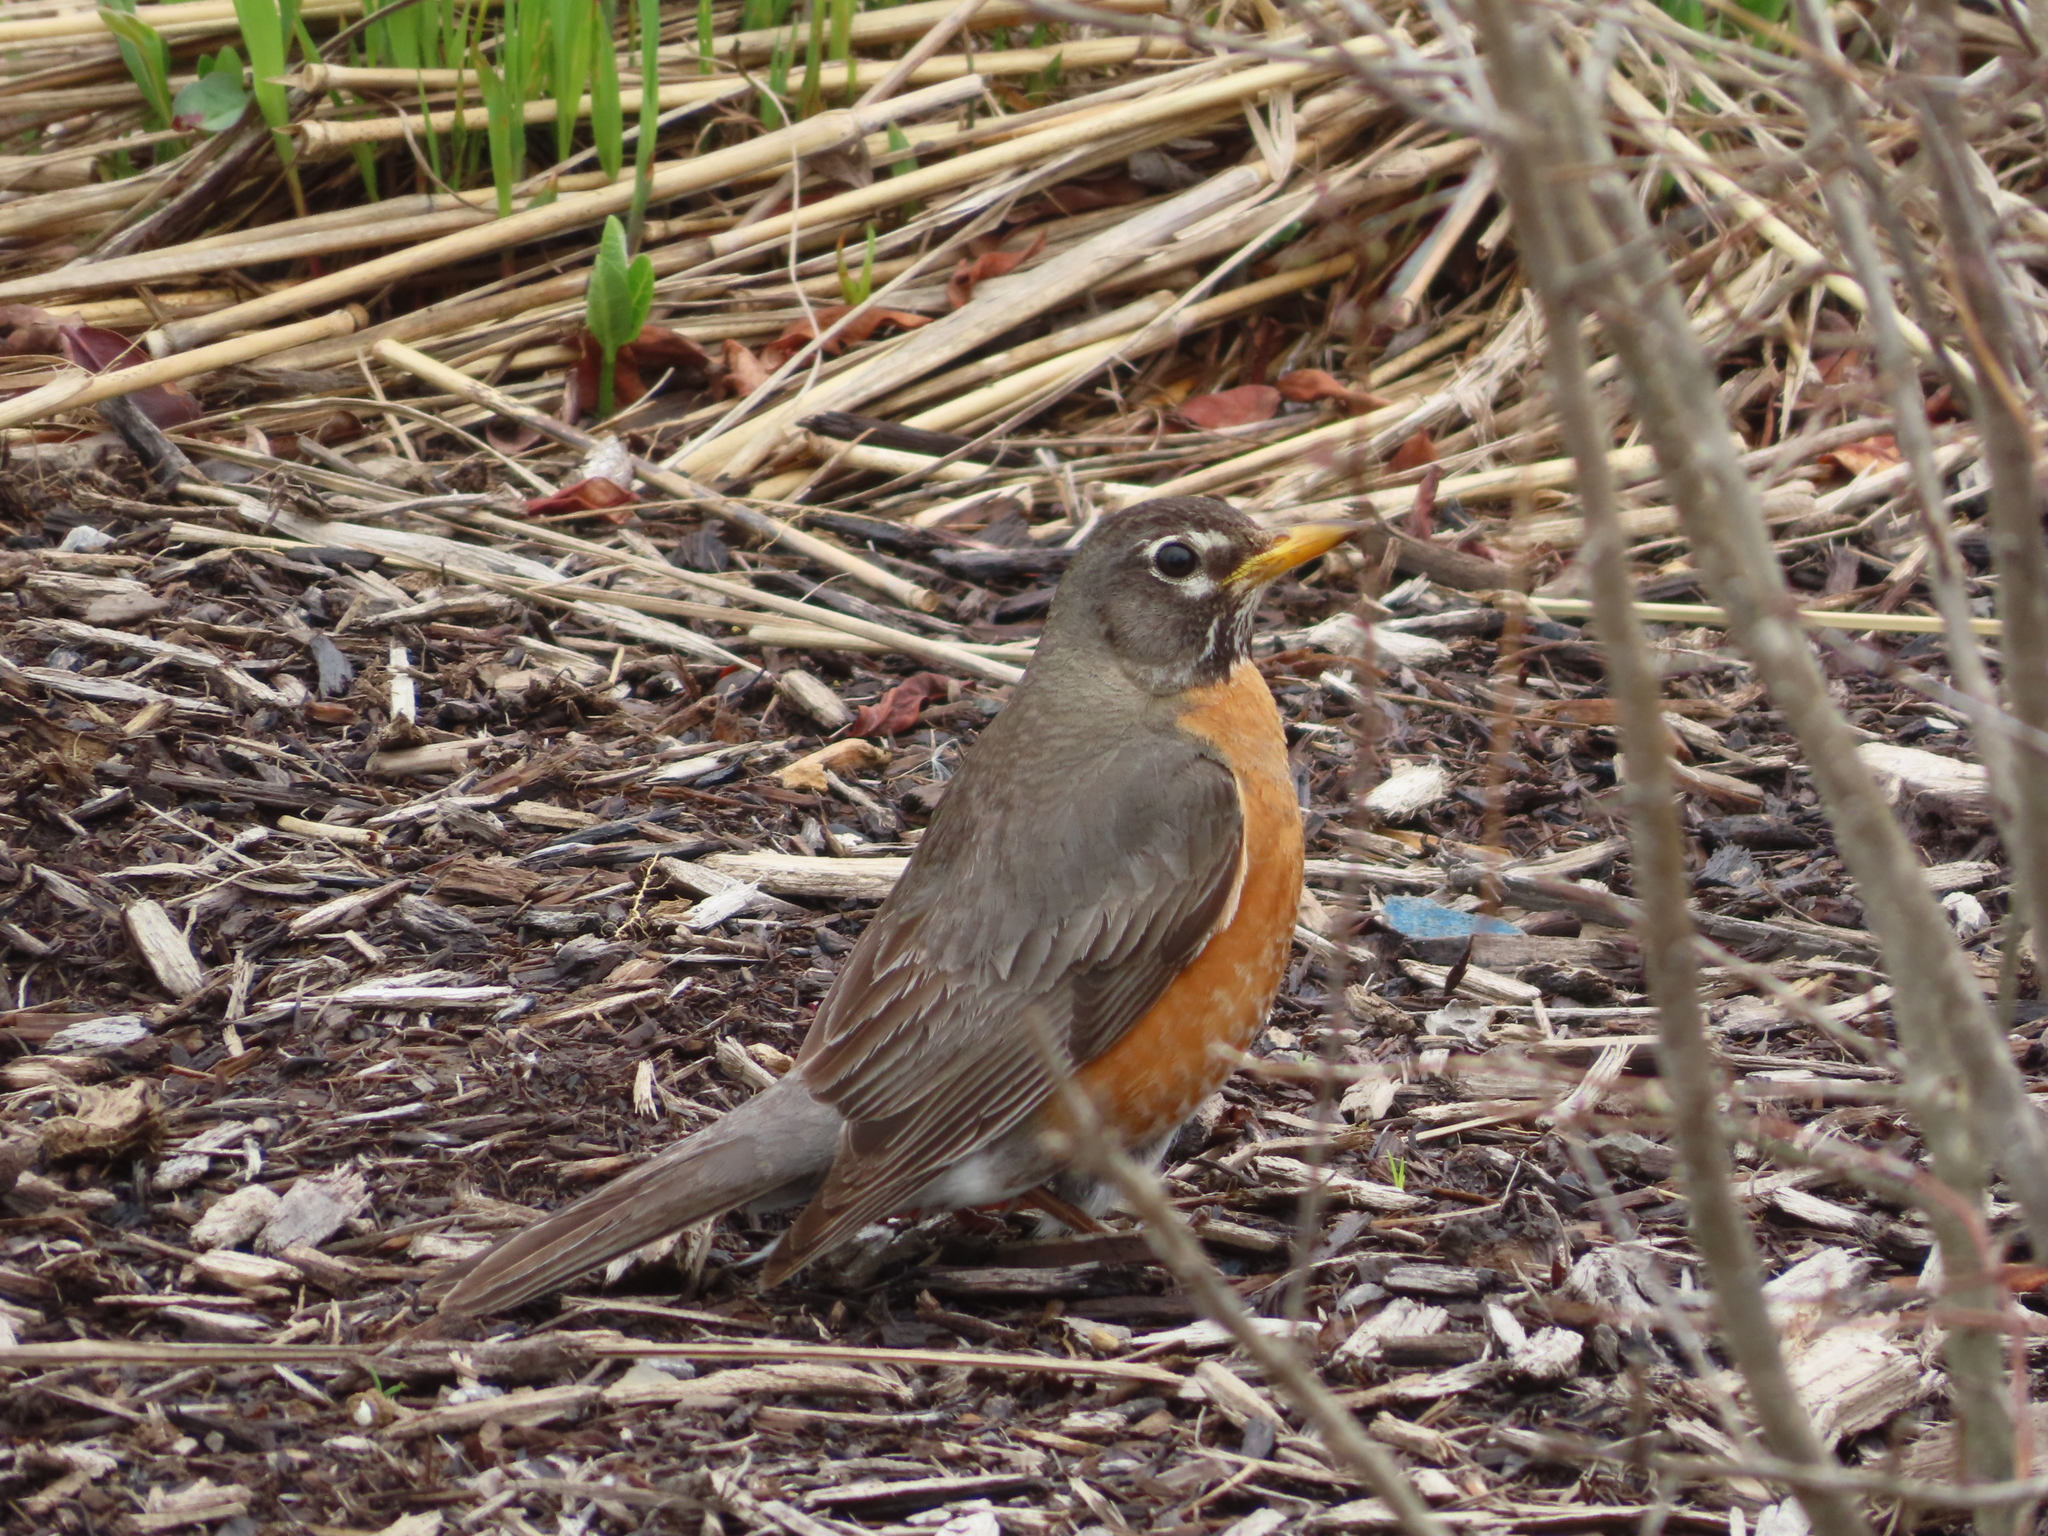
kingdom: Animalia
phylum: Chordata
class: Aves
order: Passeriformes
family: Turdidae
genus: Turdus
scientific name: Turdus migratorius
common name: American robin
